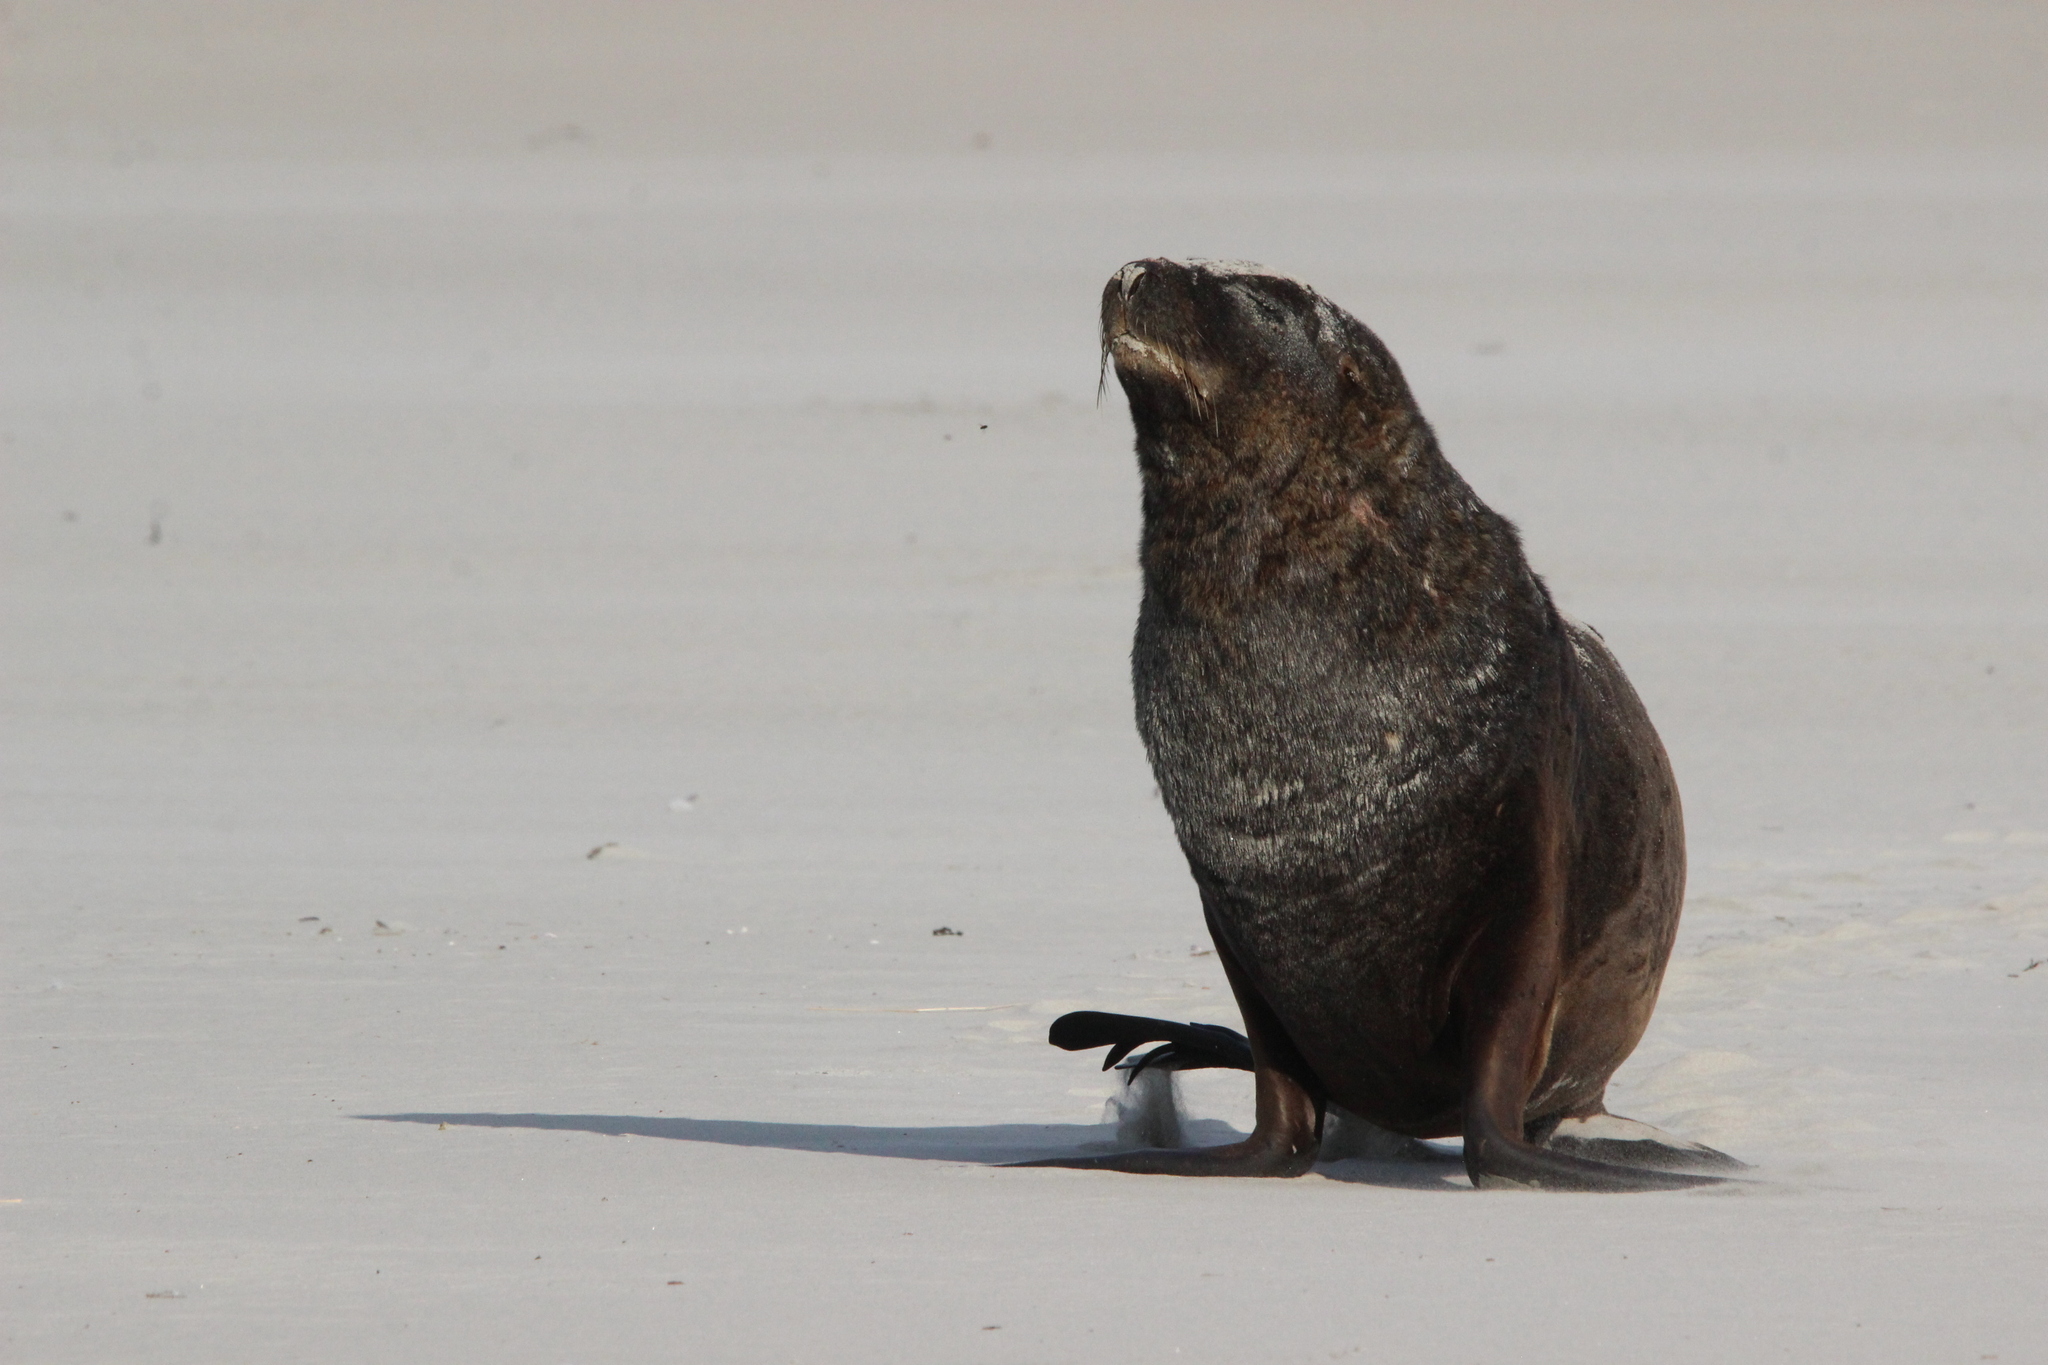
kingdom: Animalia
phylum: Chordata
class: Mammalia
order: Carnivora
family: Otariidae
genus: Phocarctos
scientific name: Phocarctos hookeri
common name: New zealand sea lion
